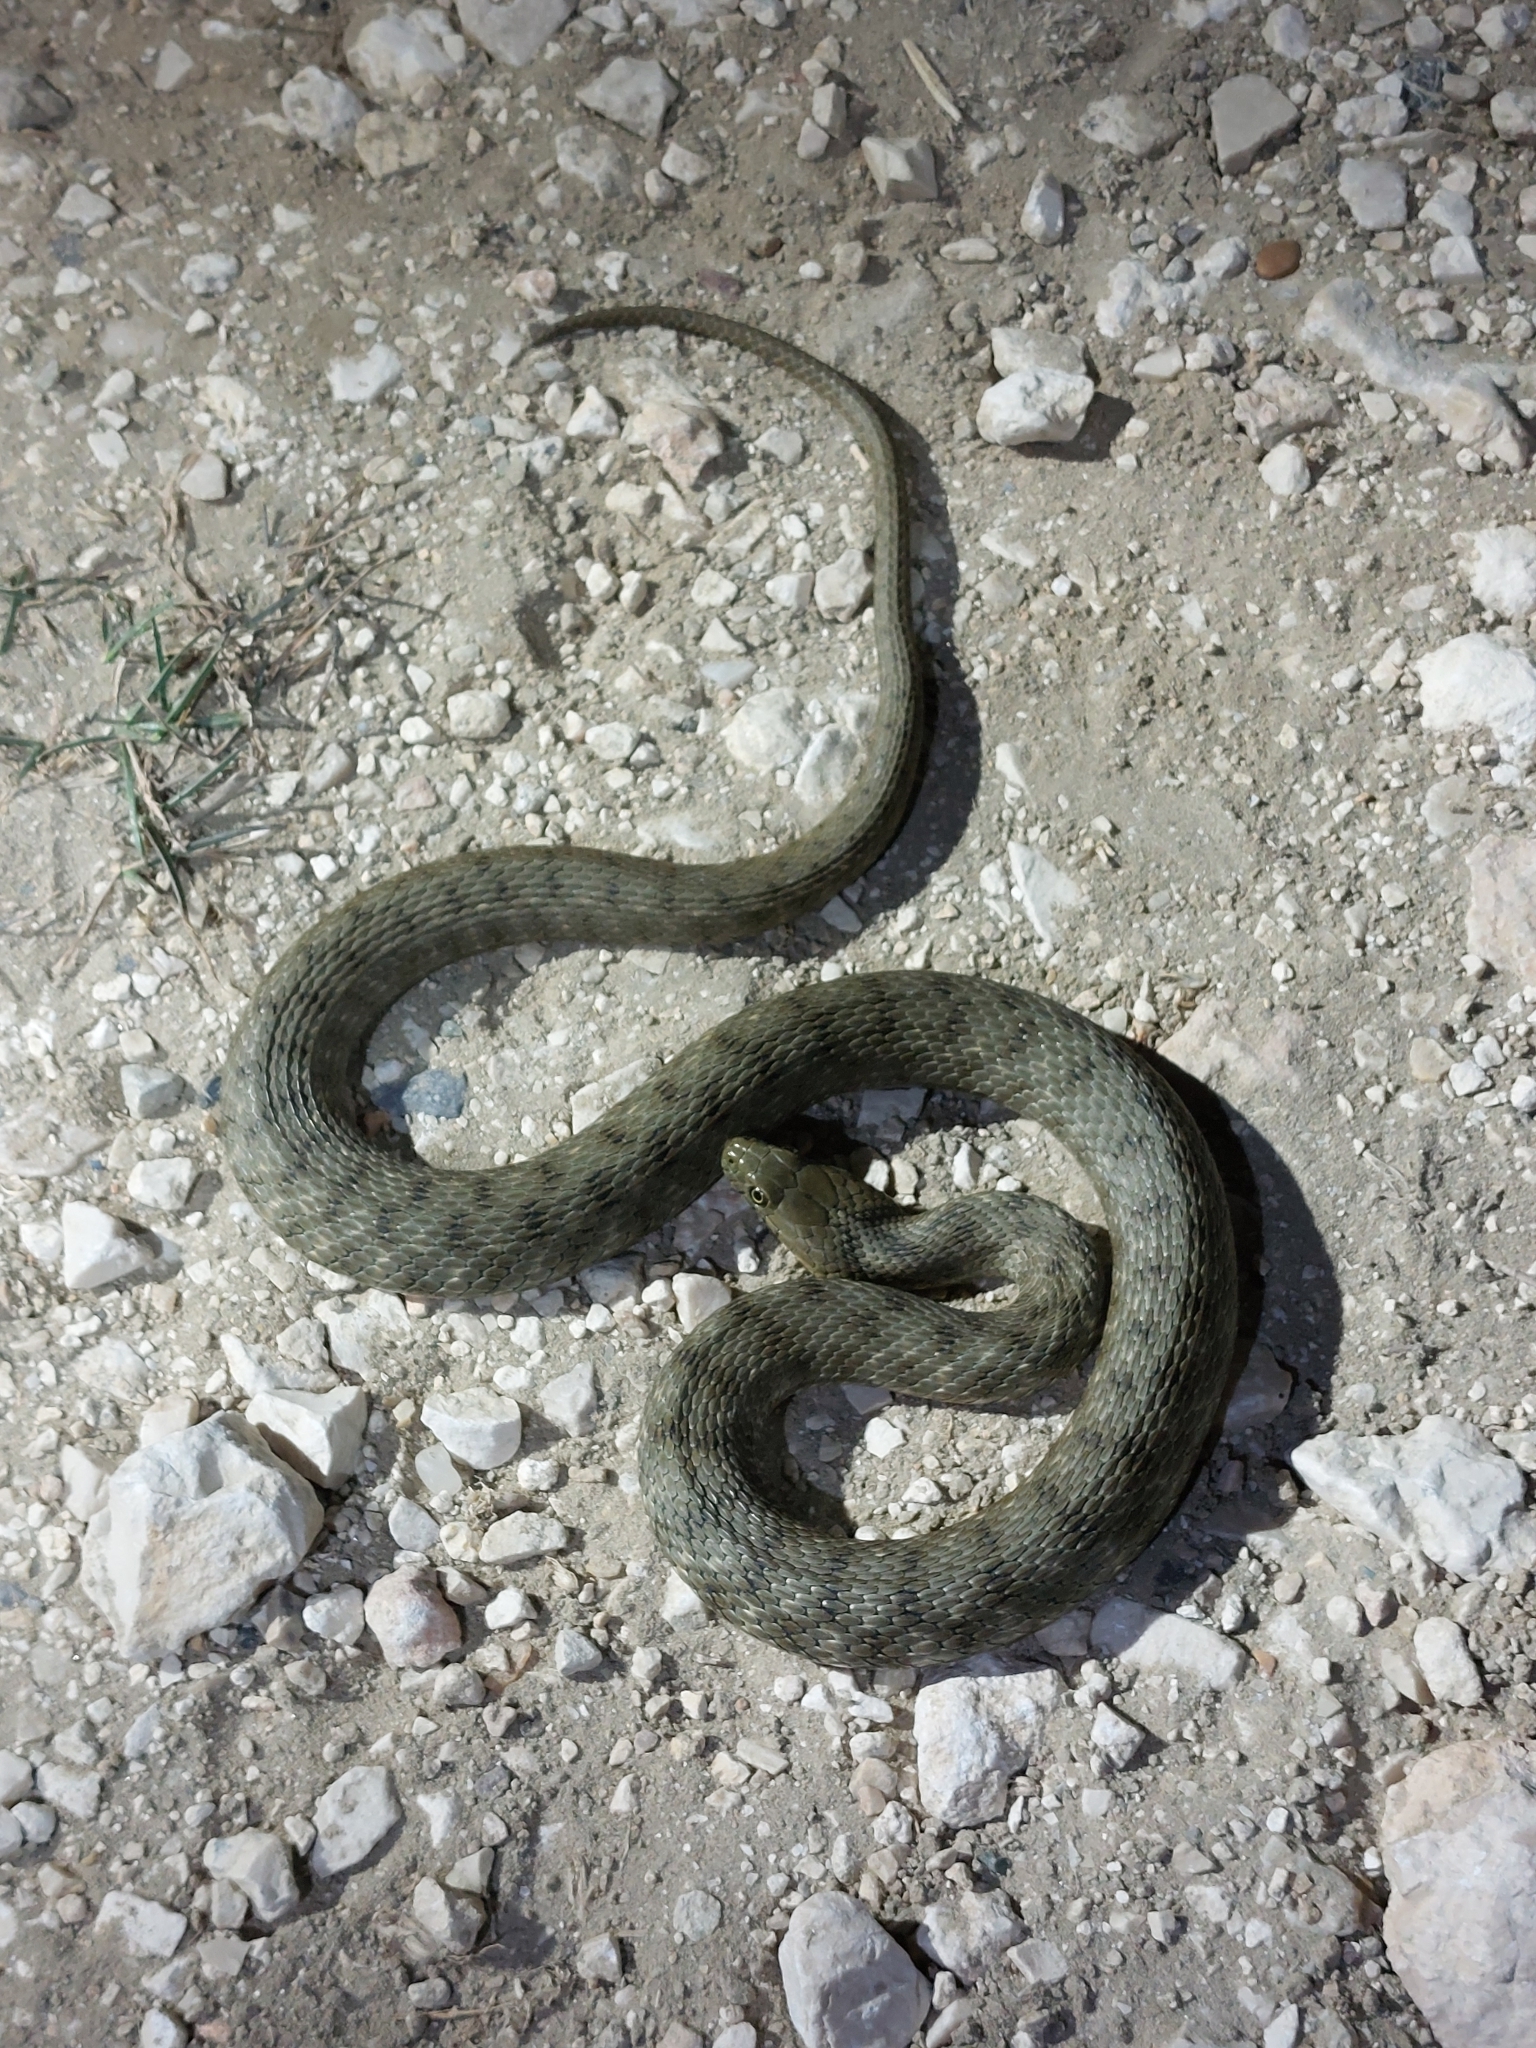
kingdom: Animalia
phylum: Chordata
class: Squamata
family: Colubridae
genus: Natrix
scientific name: Natrix tessellata
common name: Dice snake
